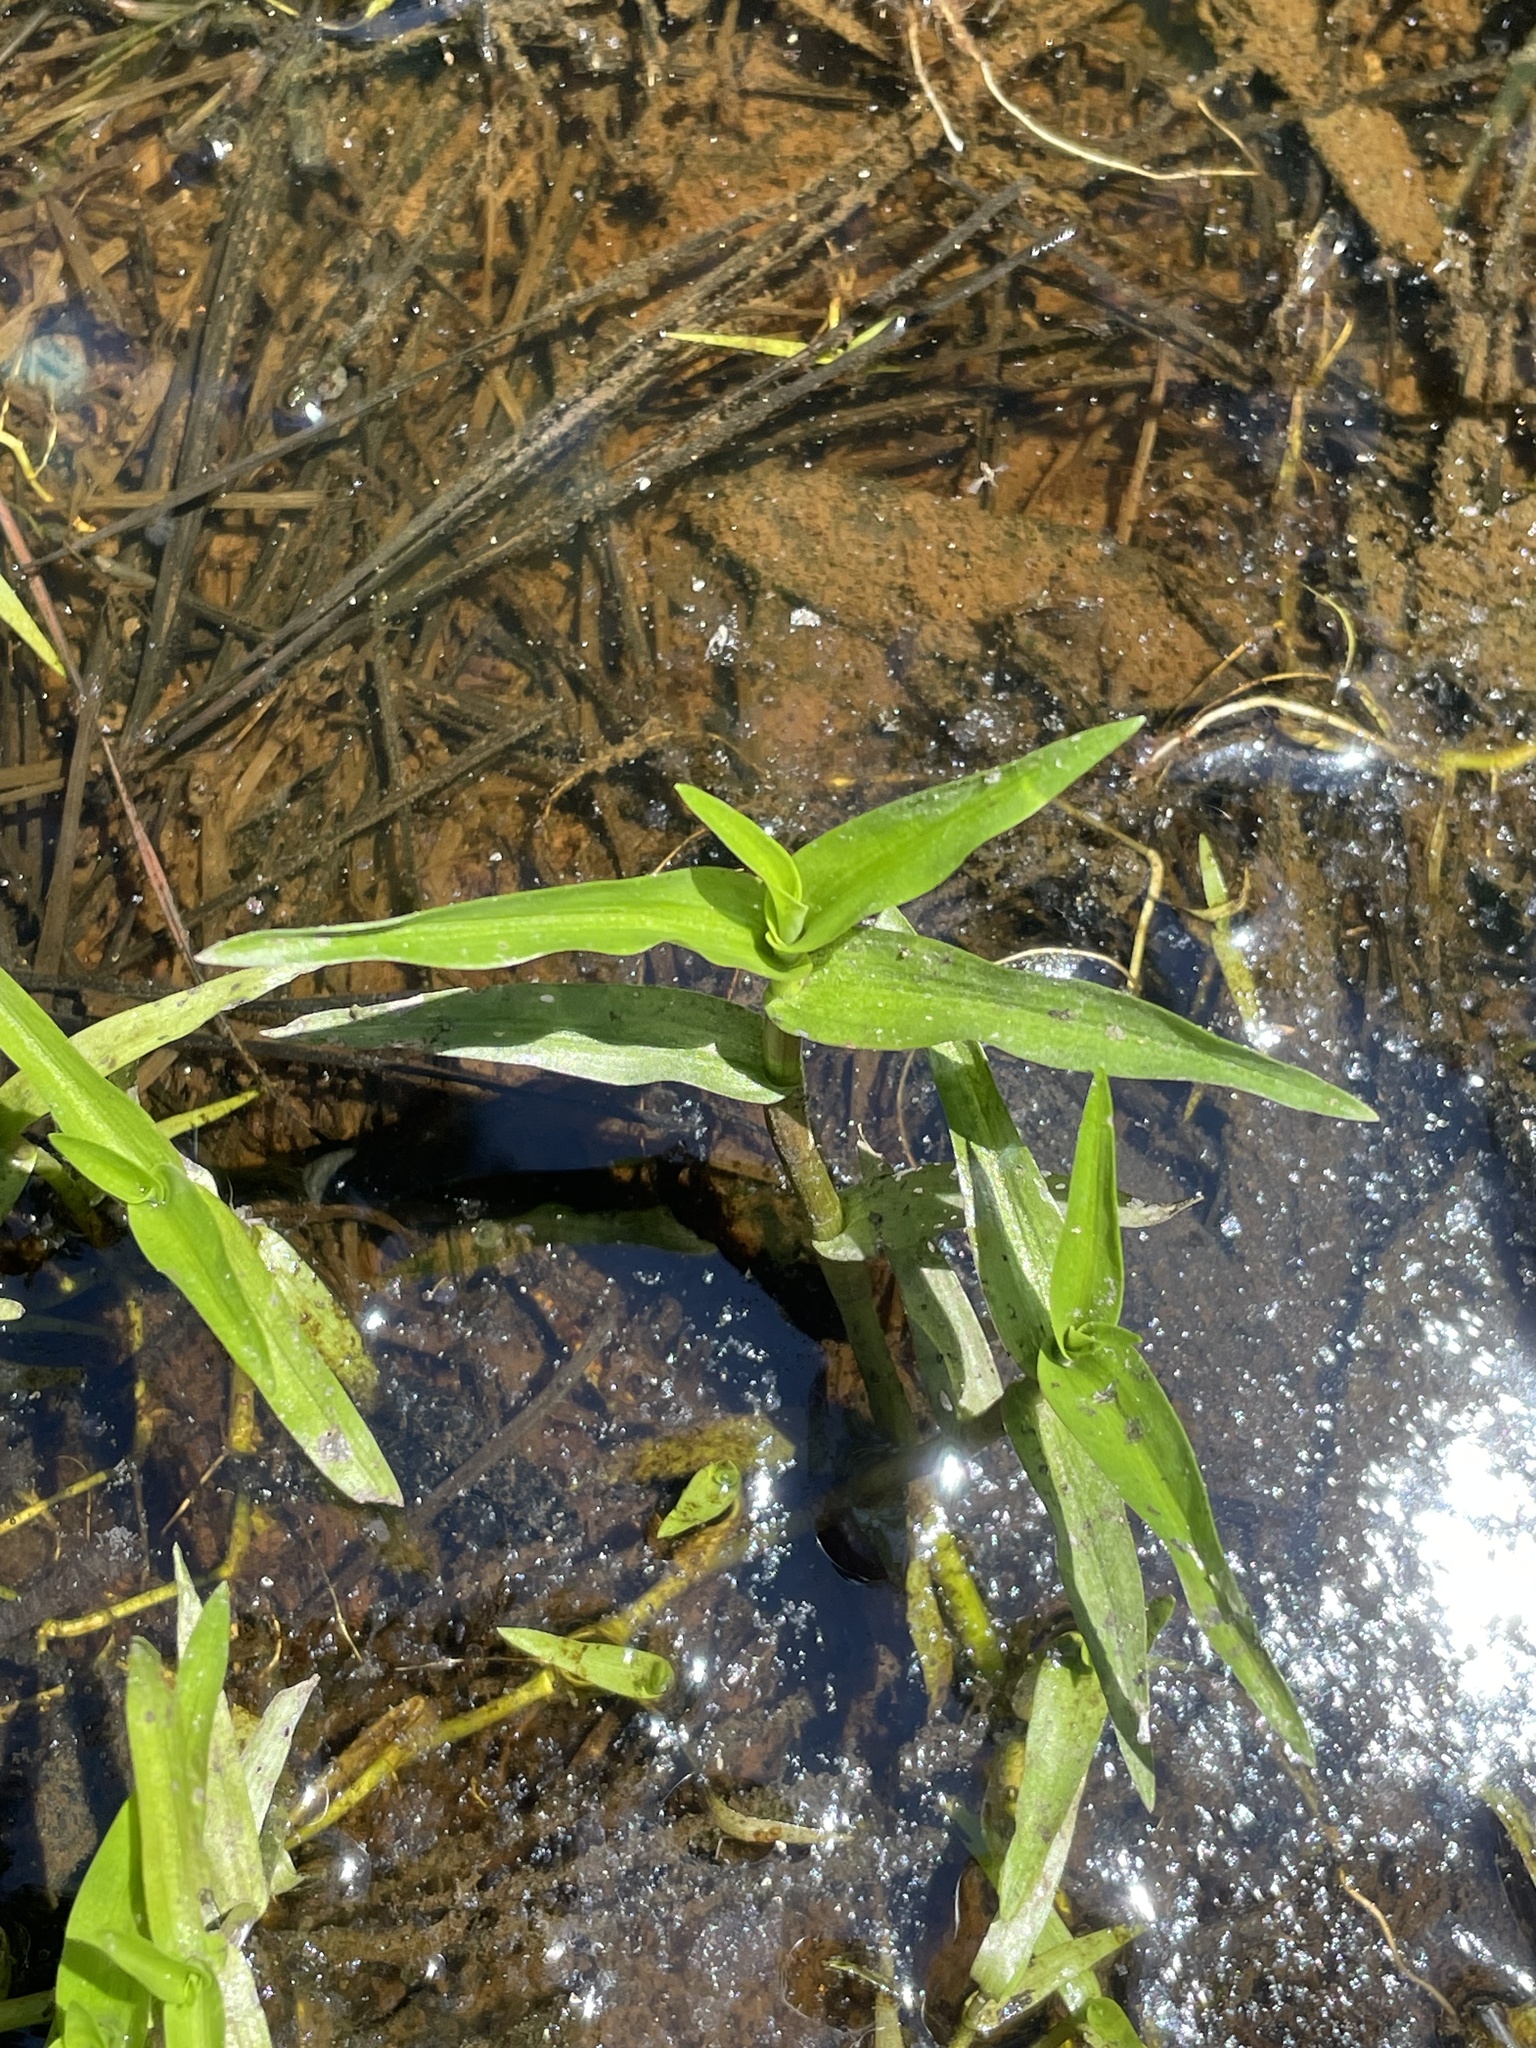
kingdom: Plantae
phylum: Tracheophyta
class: Liliopsida
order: Commelinales
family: Commelinaceae
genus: Murdannia
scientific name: Murdannia keisak
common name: Wartremoving herb
